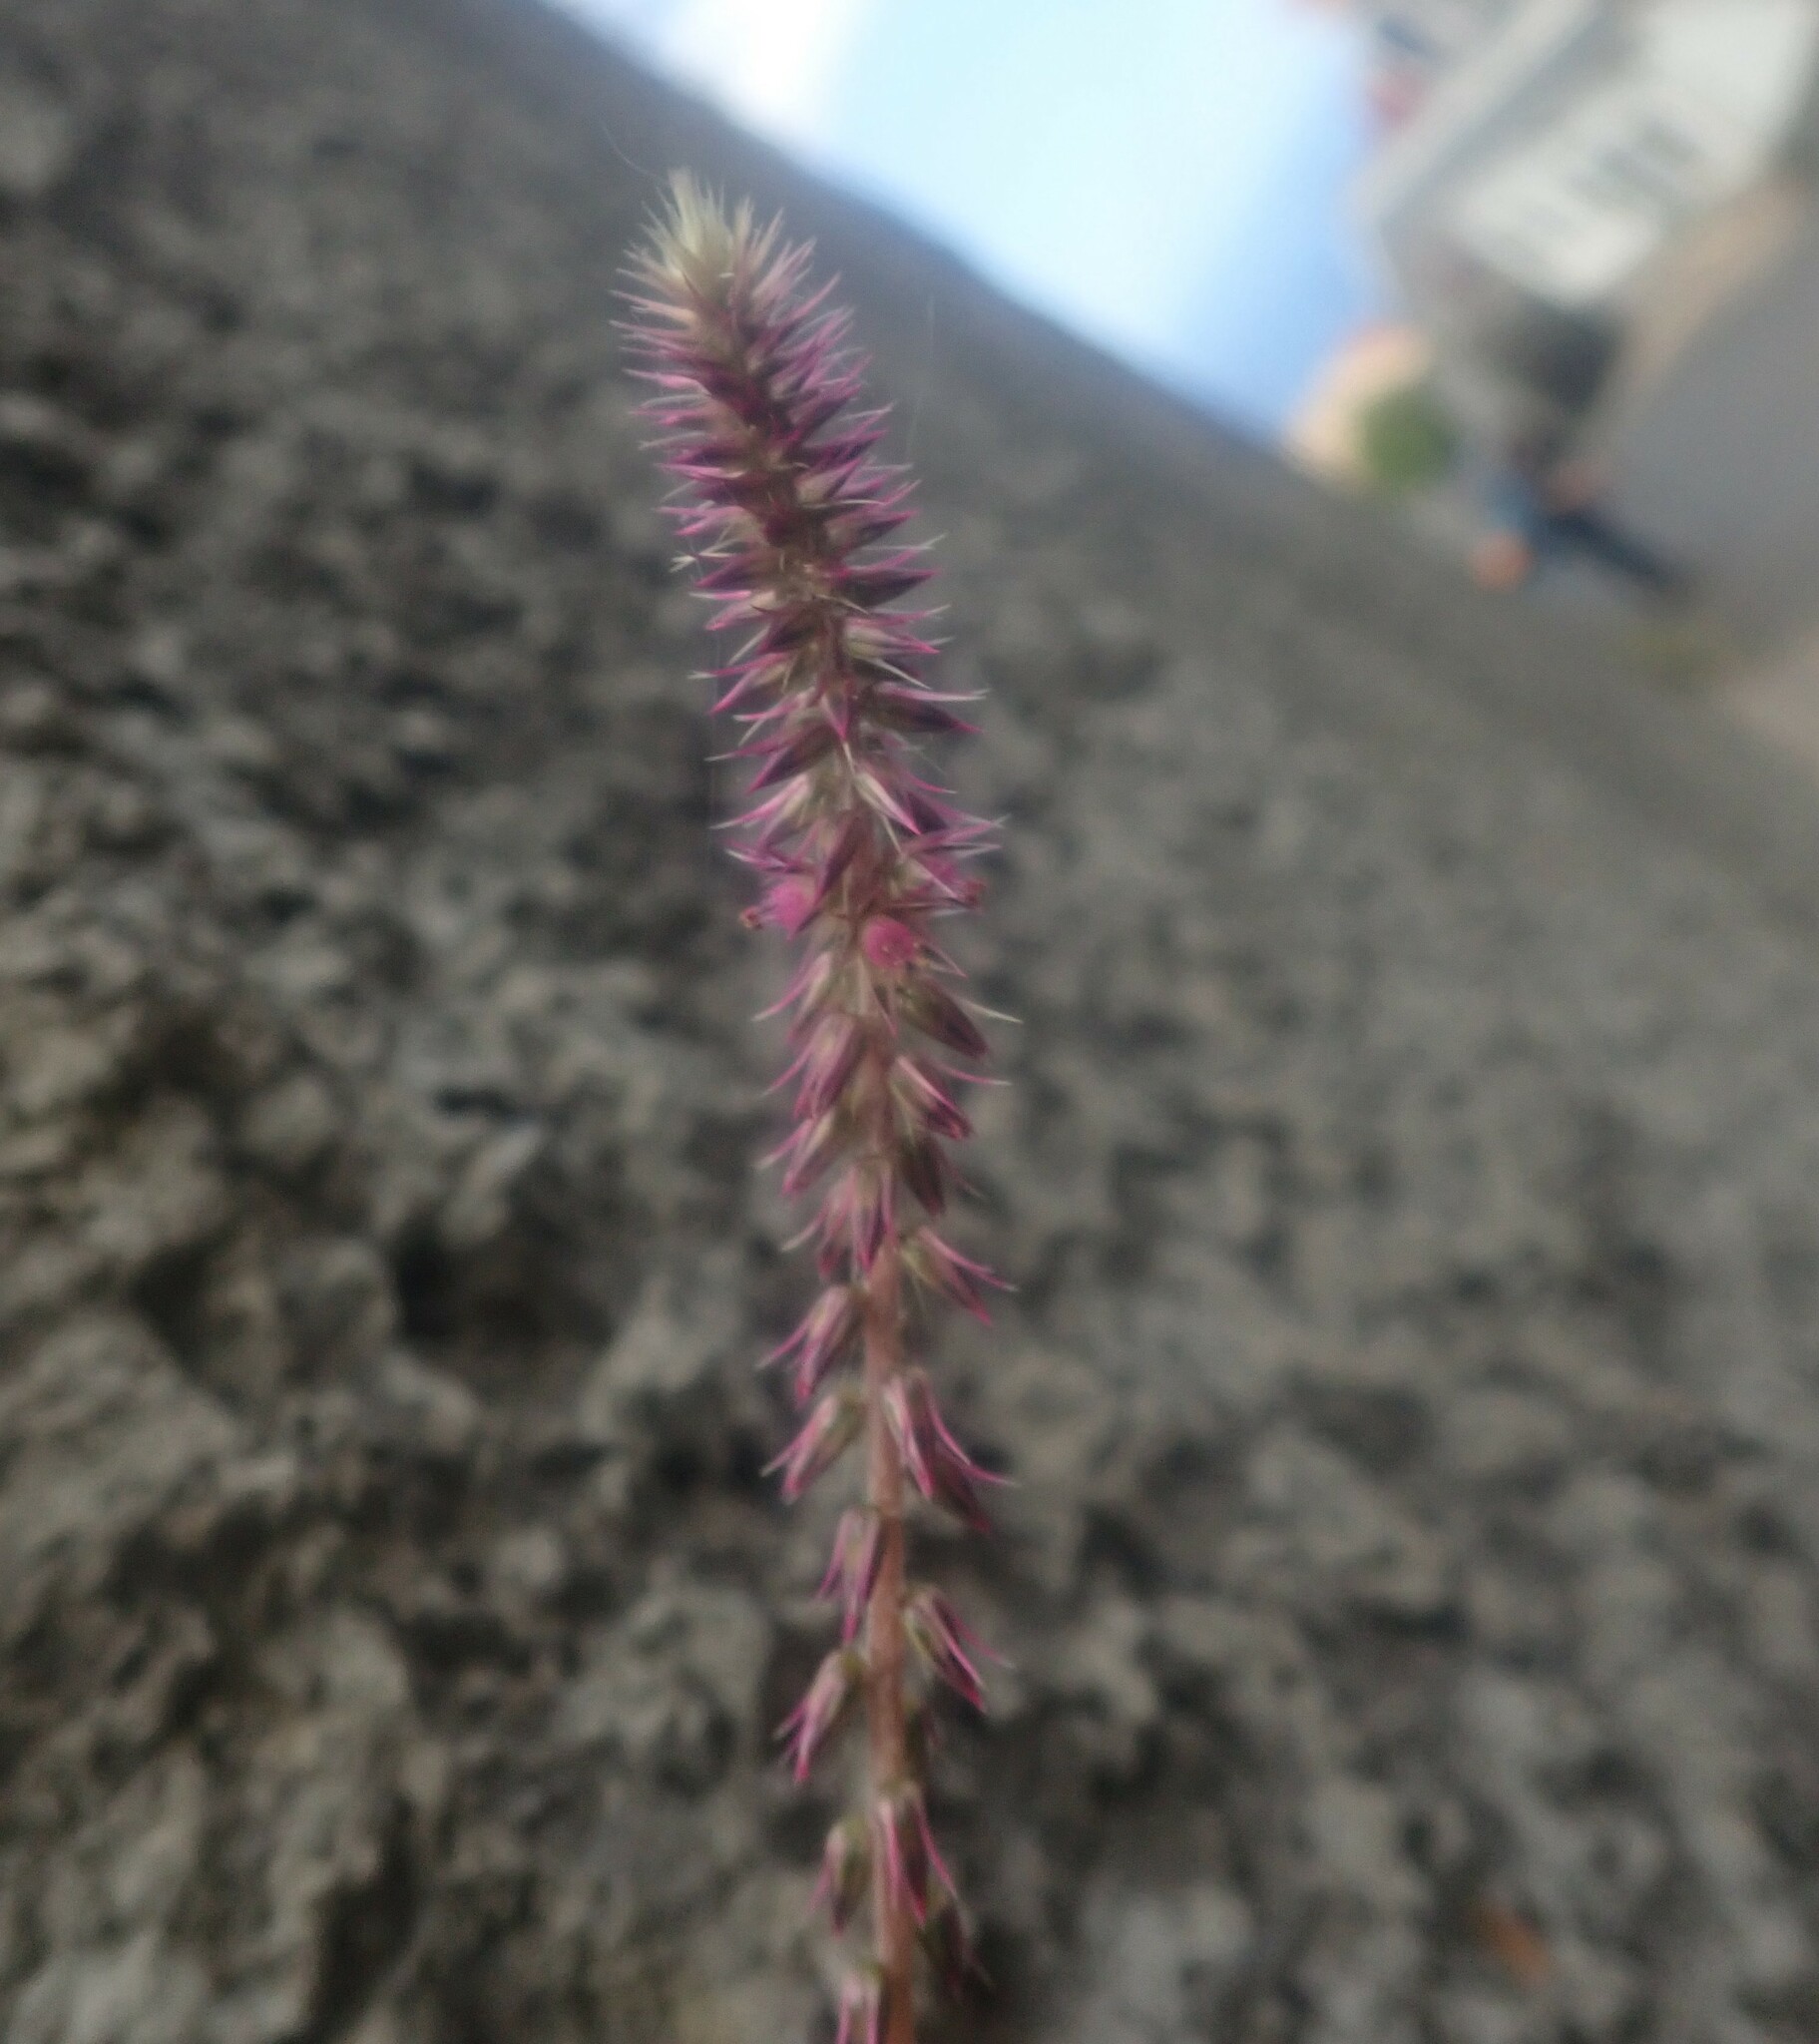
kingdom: Plantae
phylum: Tracheophyta
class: Magnoliopsida
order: Caryophyllales
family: Amaranthaceae
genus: Achyranthes
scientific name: Achyranthes aspera
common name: Devil's horsewhip
